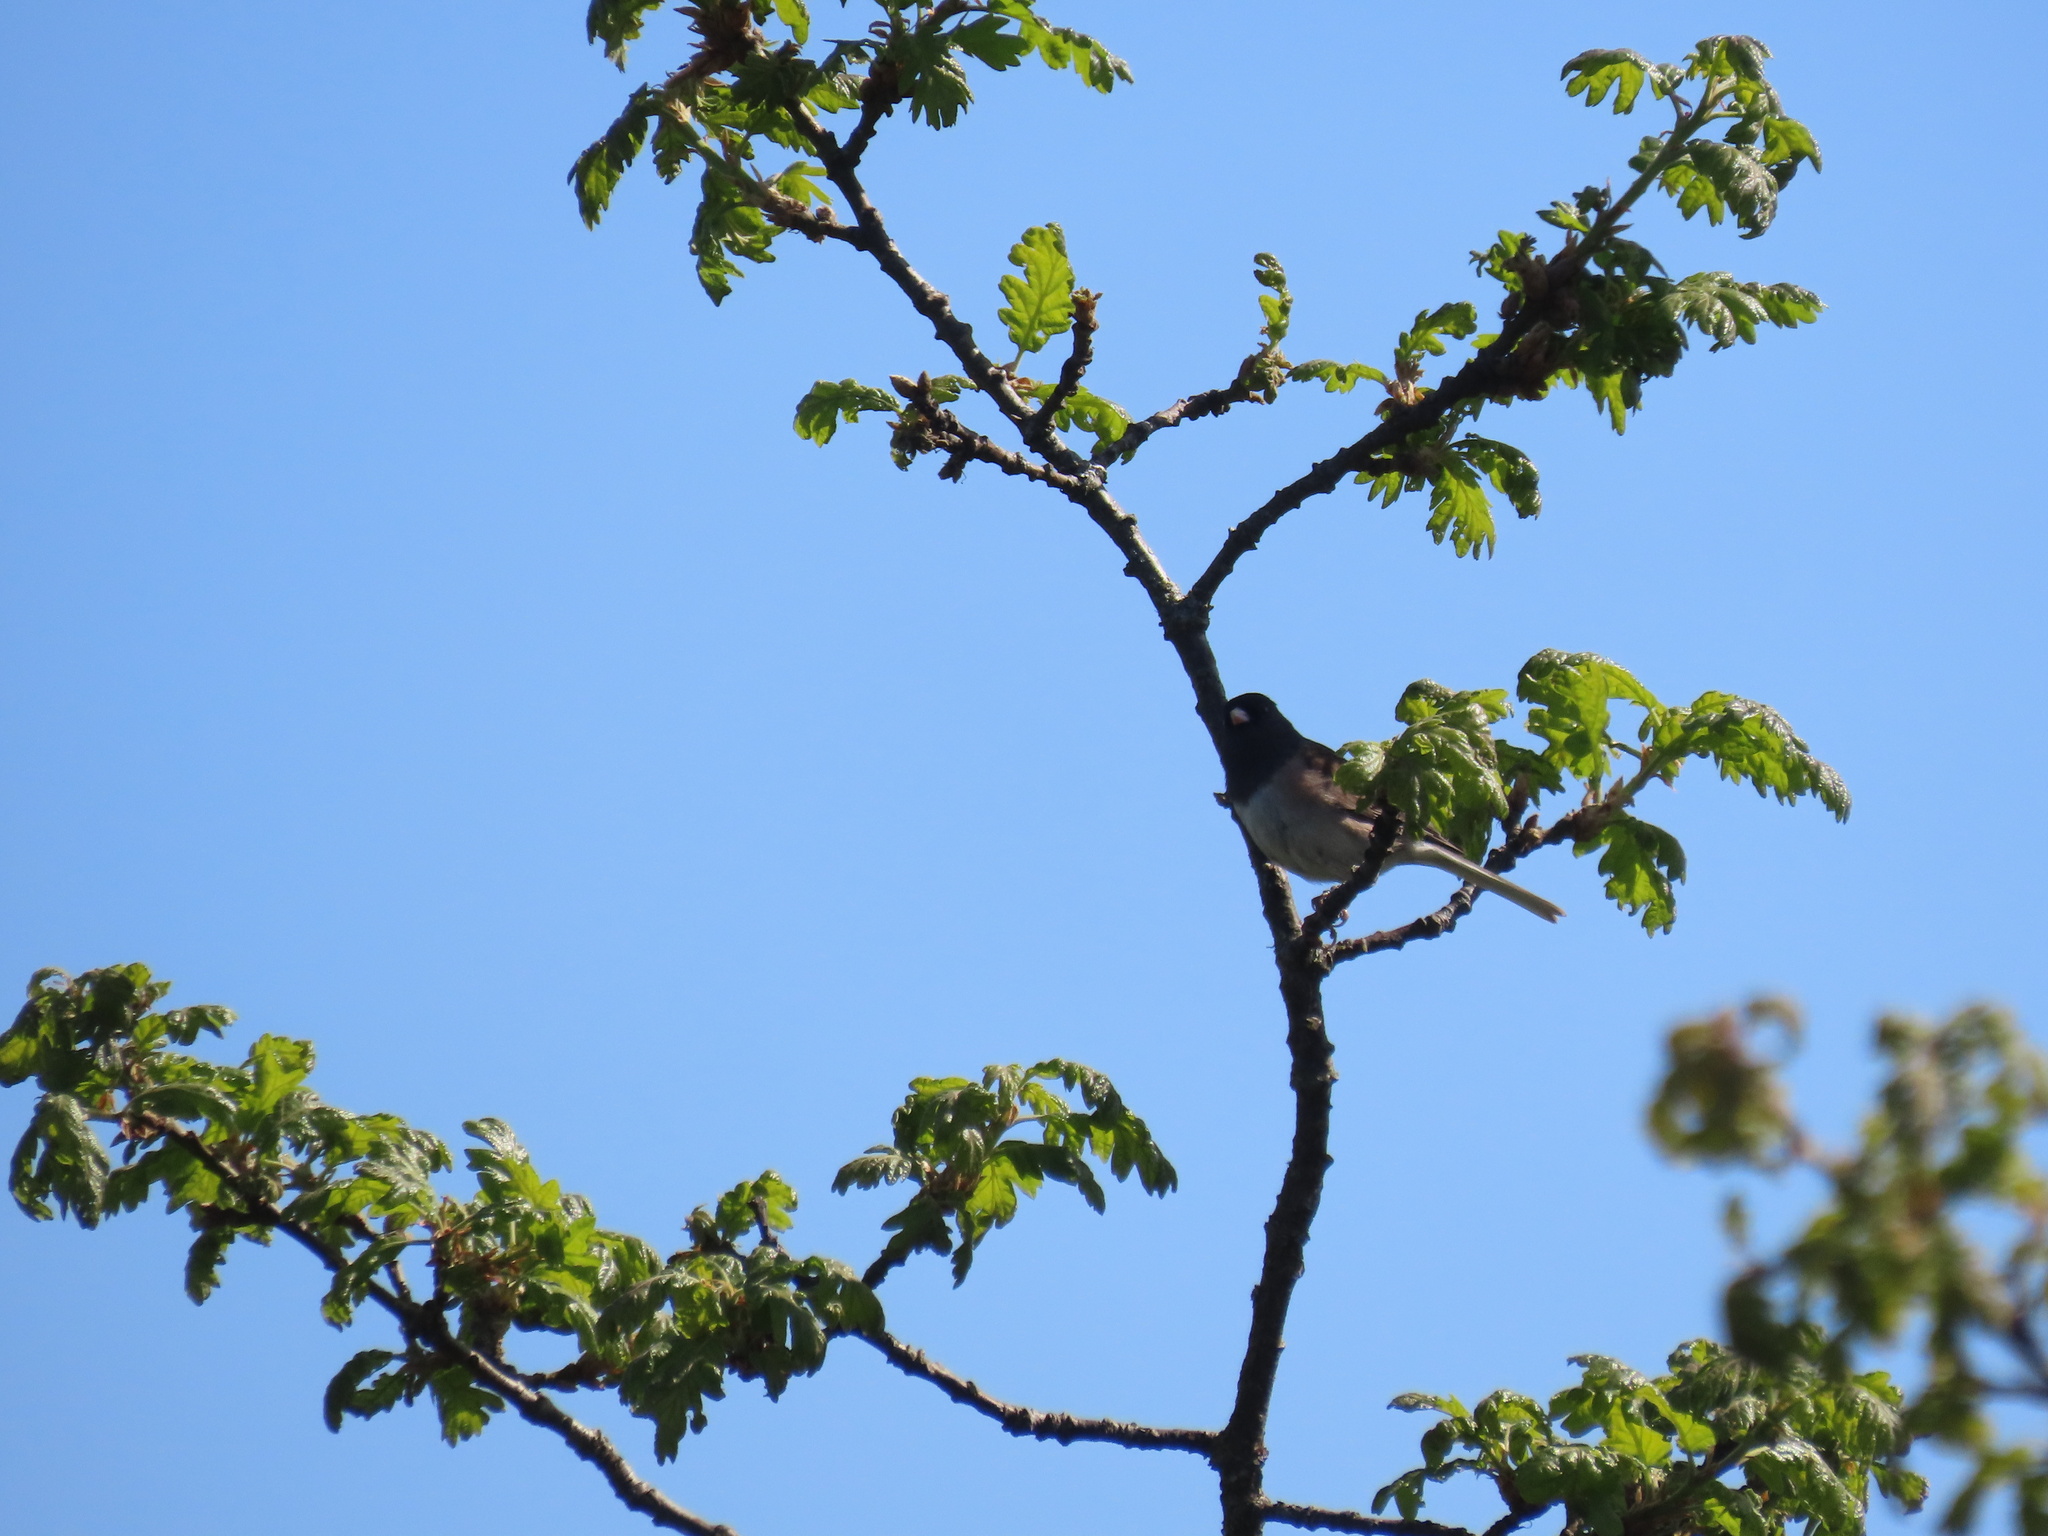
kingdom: Animalia
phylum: Chordata
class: Aves
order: Passeriformes
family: Passerellidae
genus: Junco
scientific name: Junco hyemalis
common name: Dark-eyed junco
